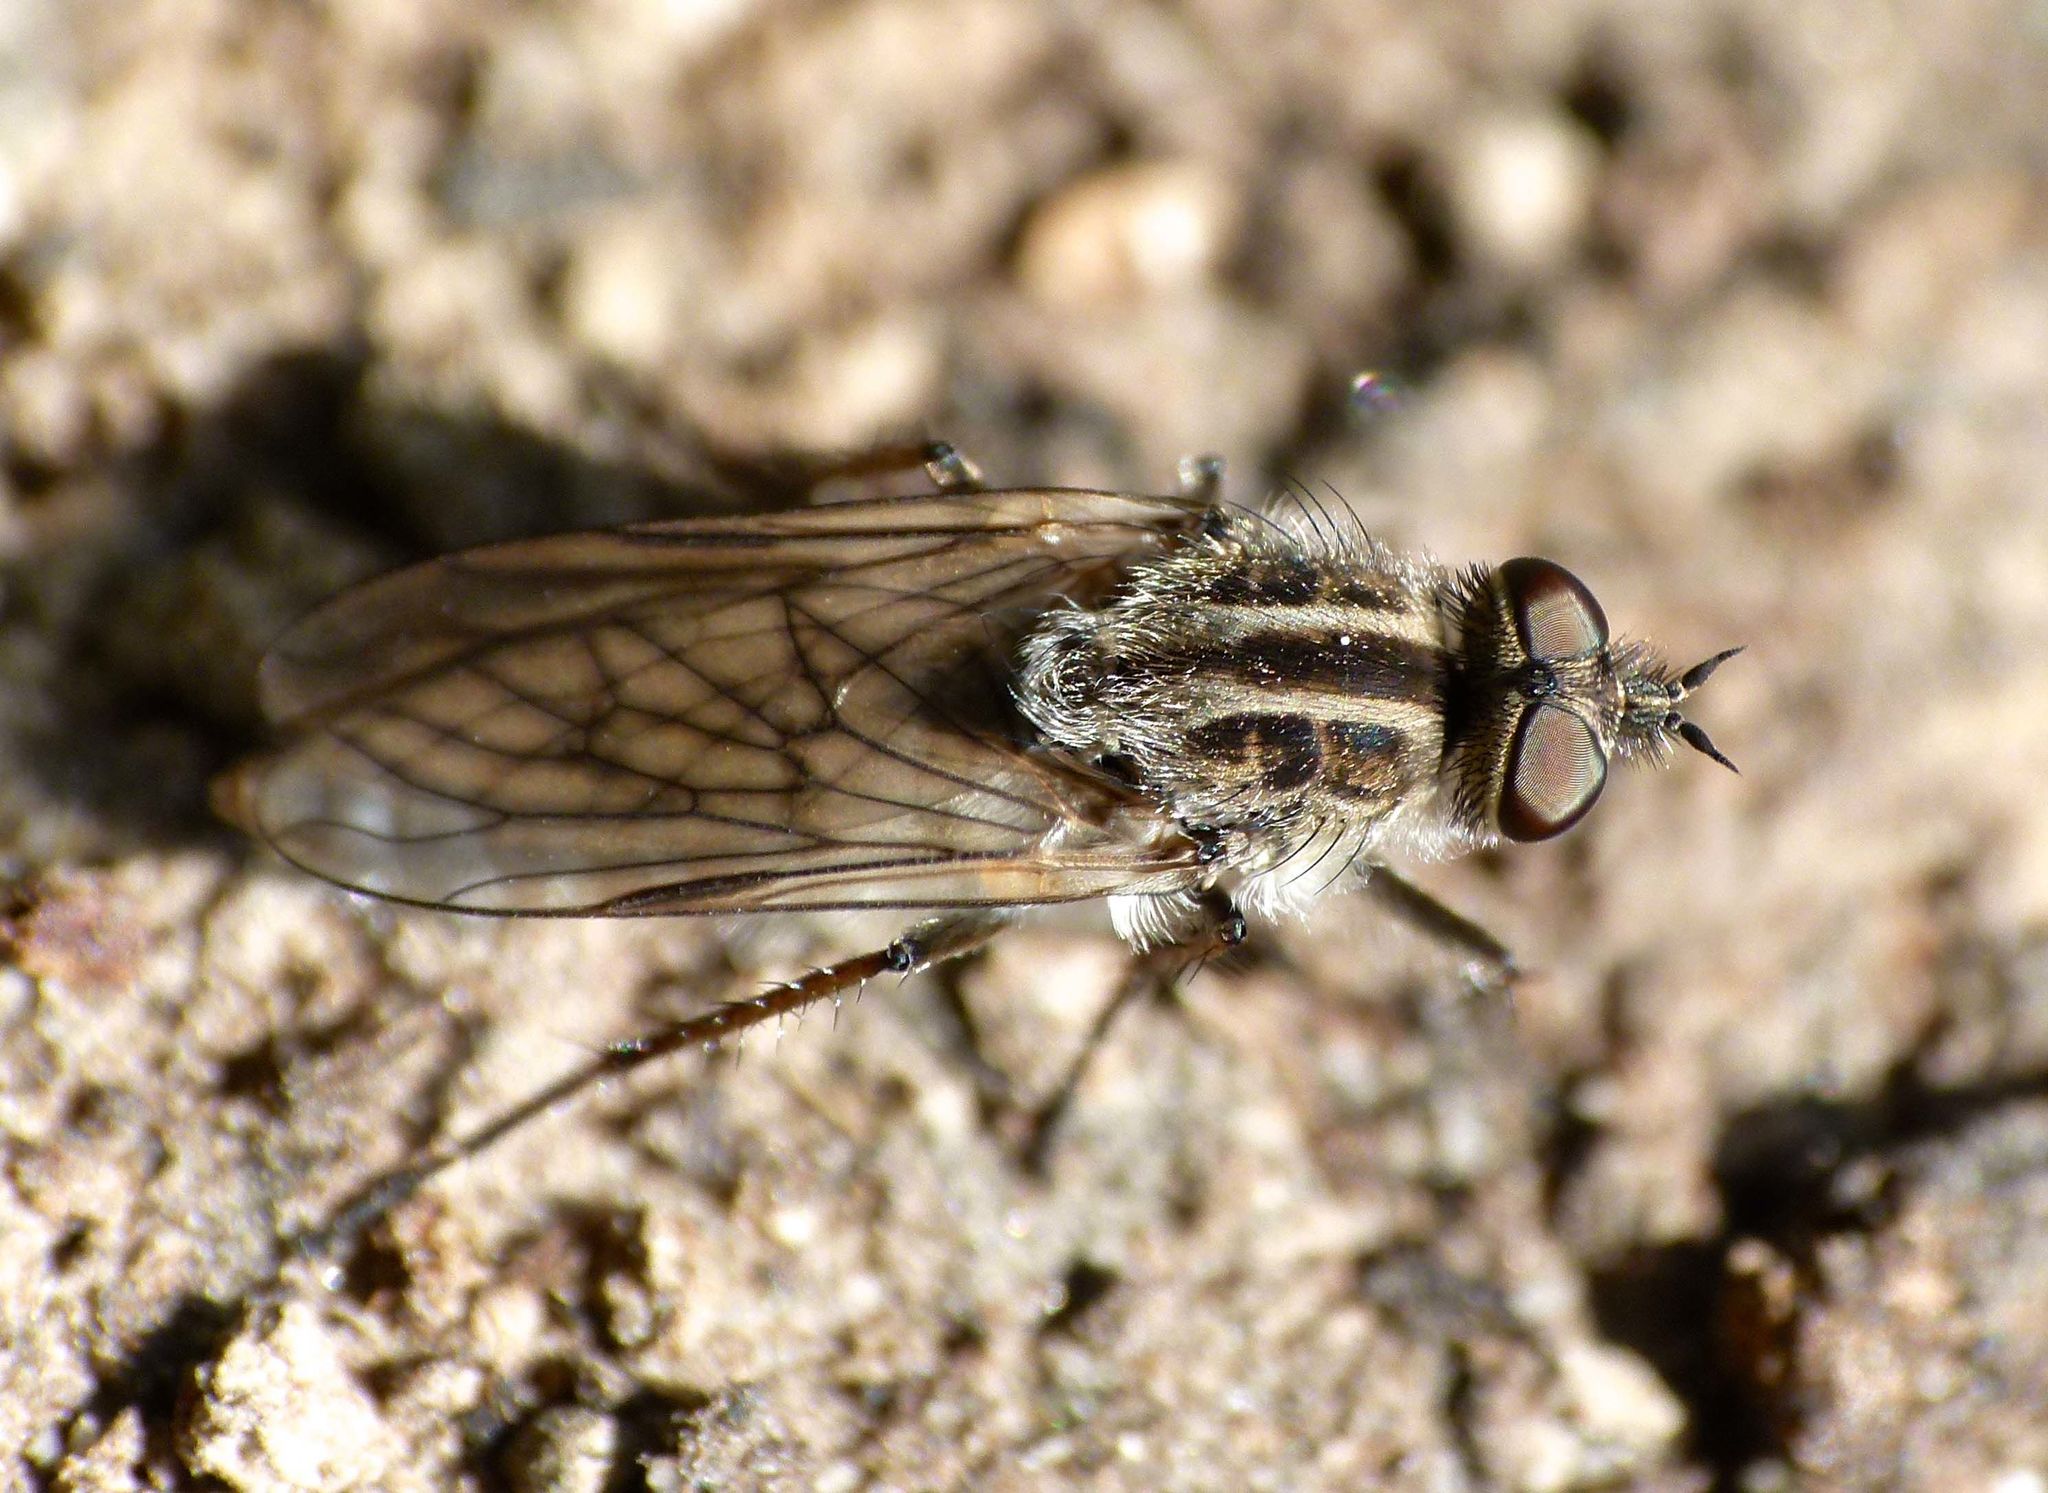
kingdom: Animalia
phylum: Arthropoda
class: Insecta
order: Diptera
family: Therevidae
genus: Anabarhynchus
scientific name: Anabarhynchus indistinctus
